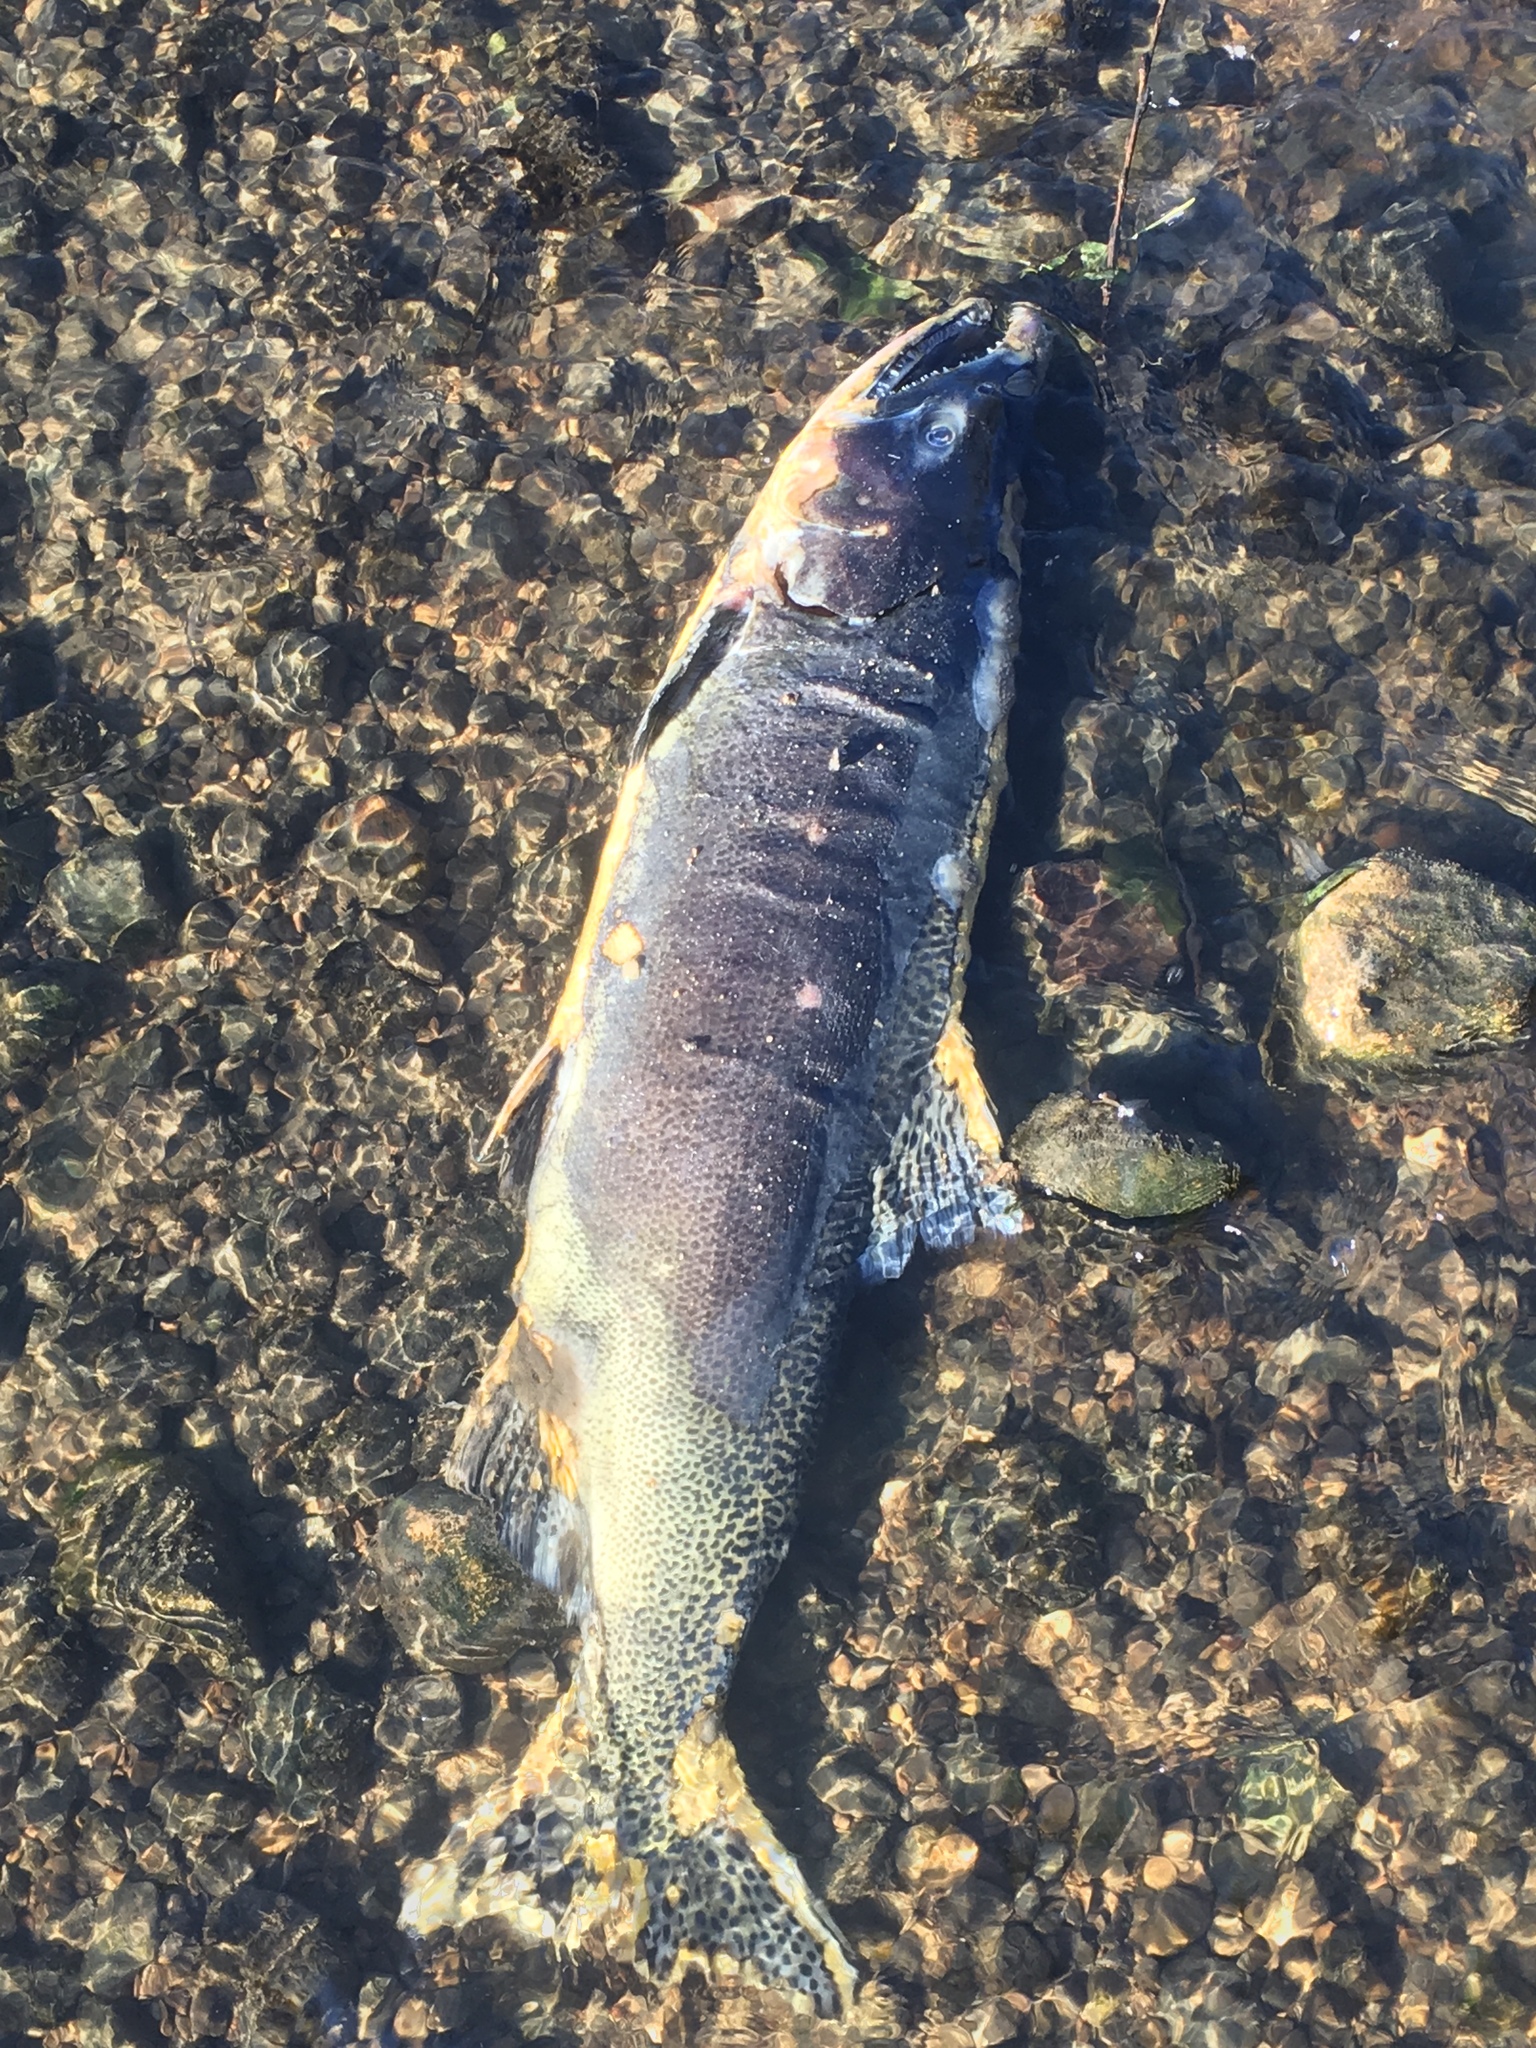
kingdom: Animalia
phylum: Chordata
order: Salmoniformes
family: Salmonidae
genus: Oncorhynchus
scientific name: Oncorhynchus tshawytscha
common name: Chinook salmon
